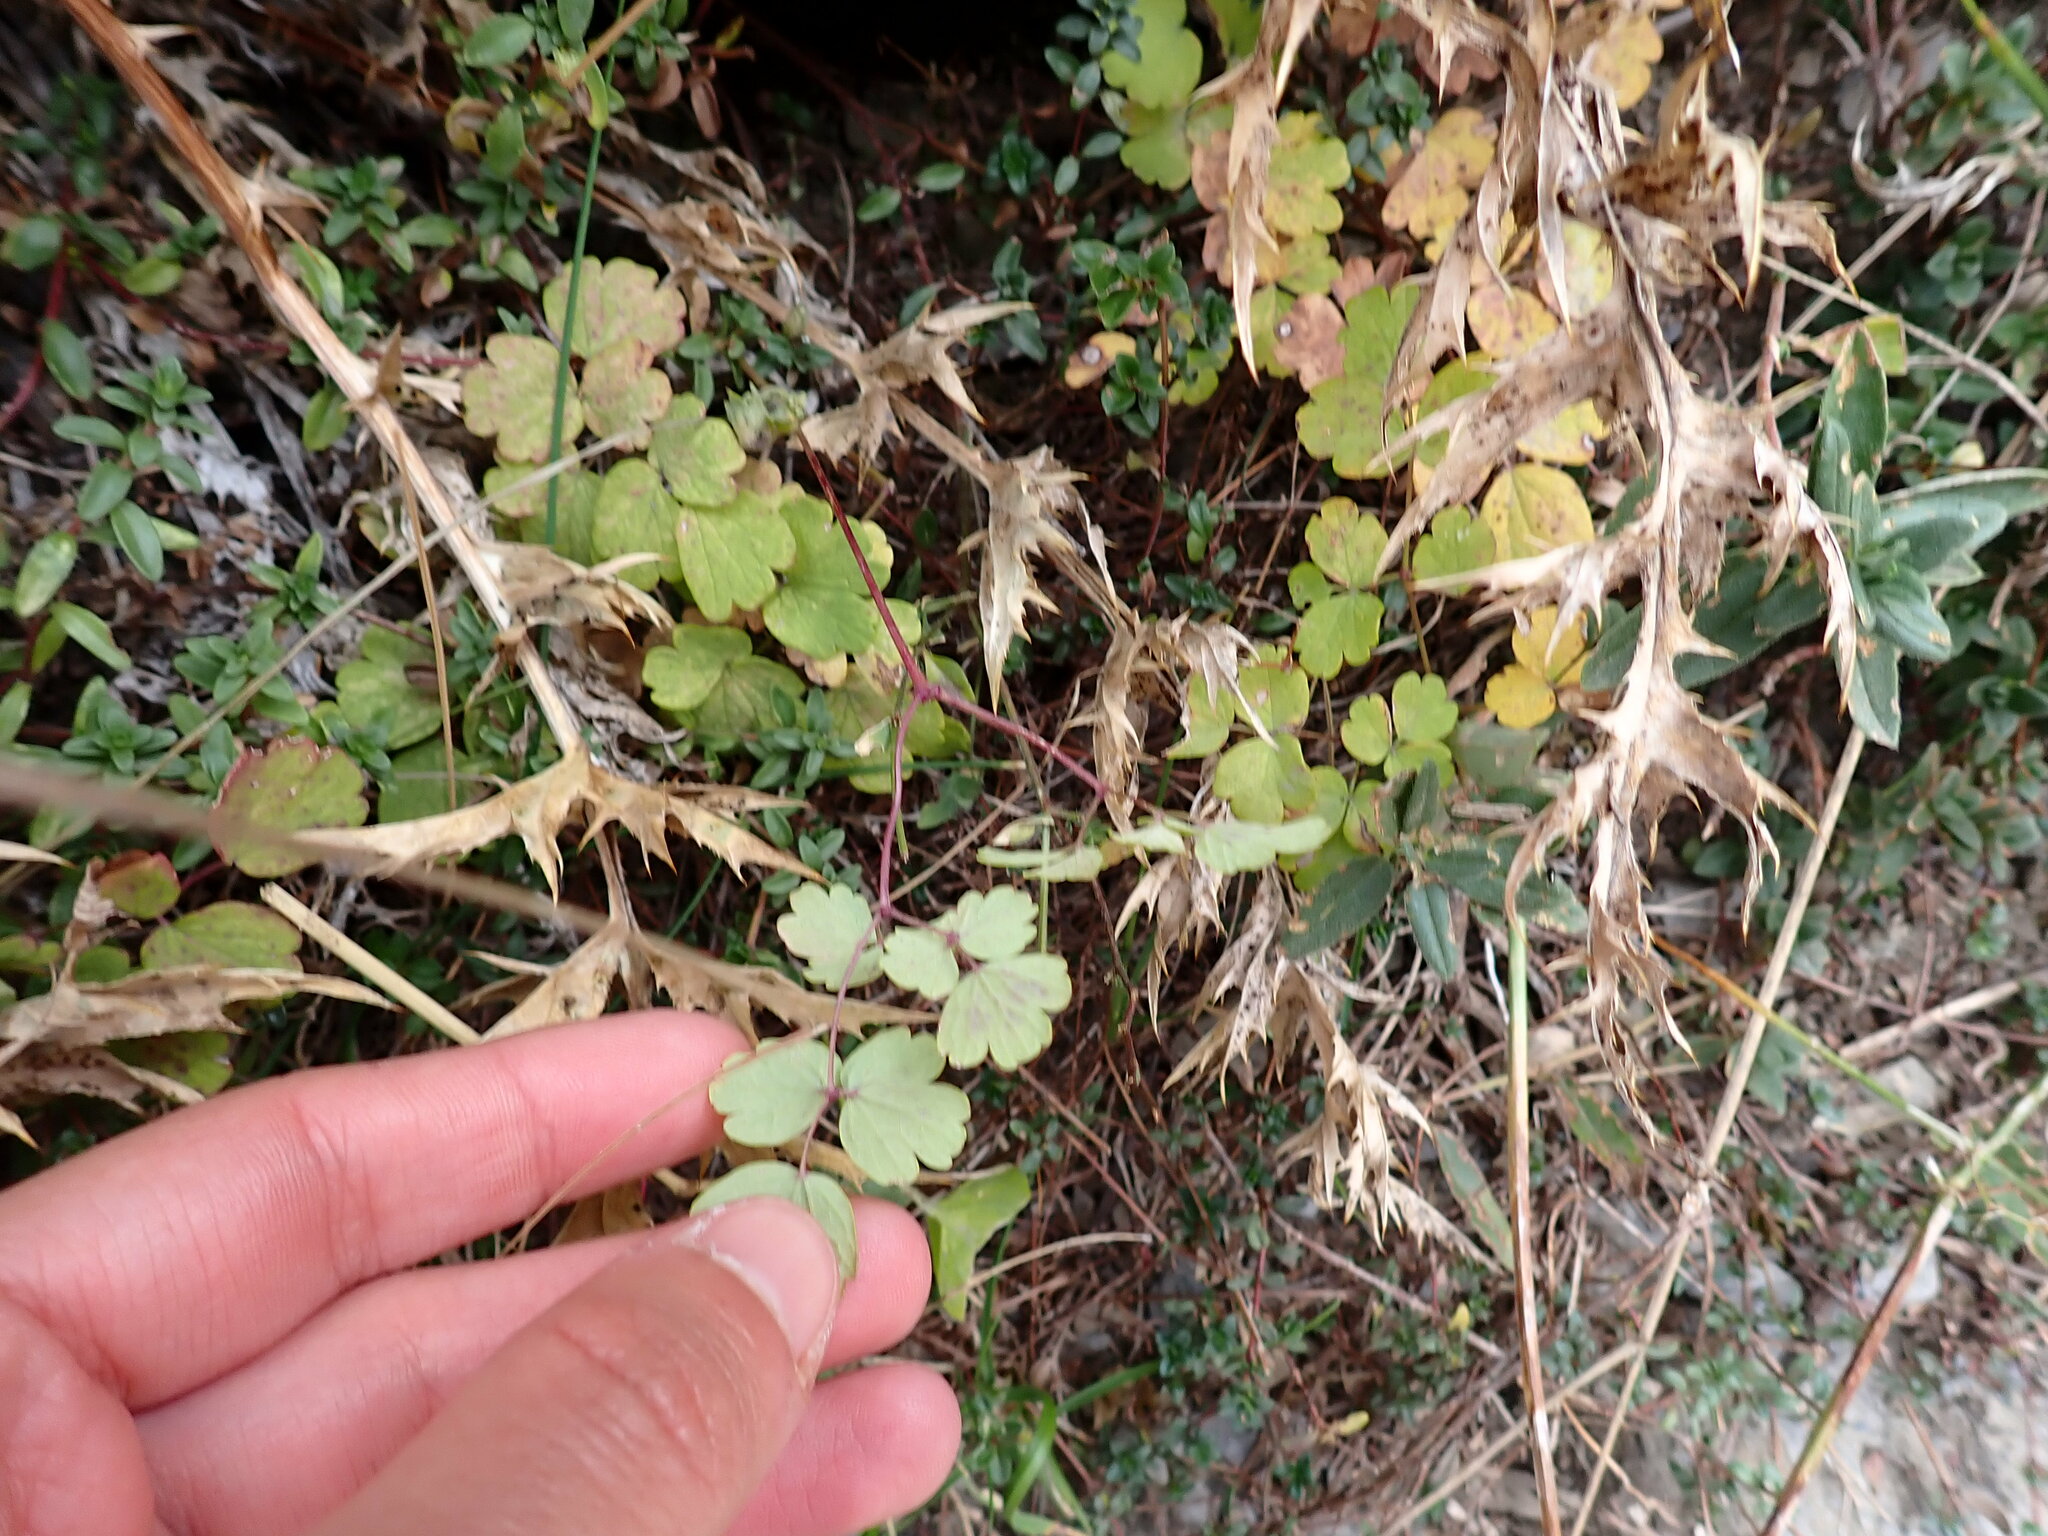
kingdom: Plantae
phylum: Tracheophyta
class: Magnoliopsida
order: Ranunculales
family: Ranunculaceae
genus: Thalictrum
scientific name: Thalictrum minus
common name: Lesser meadow-rue
